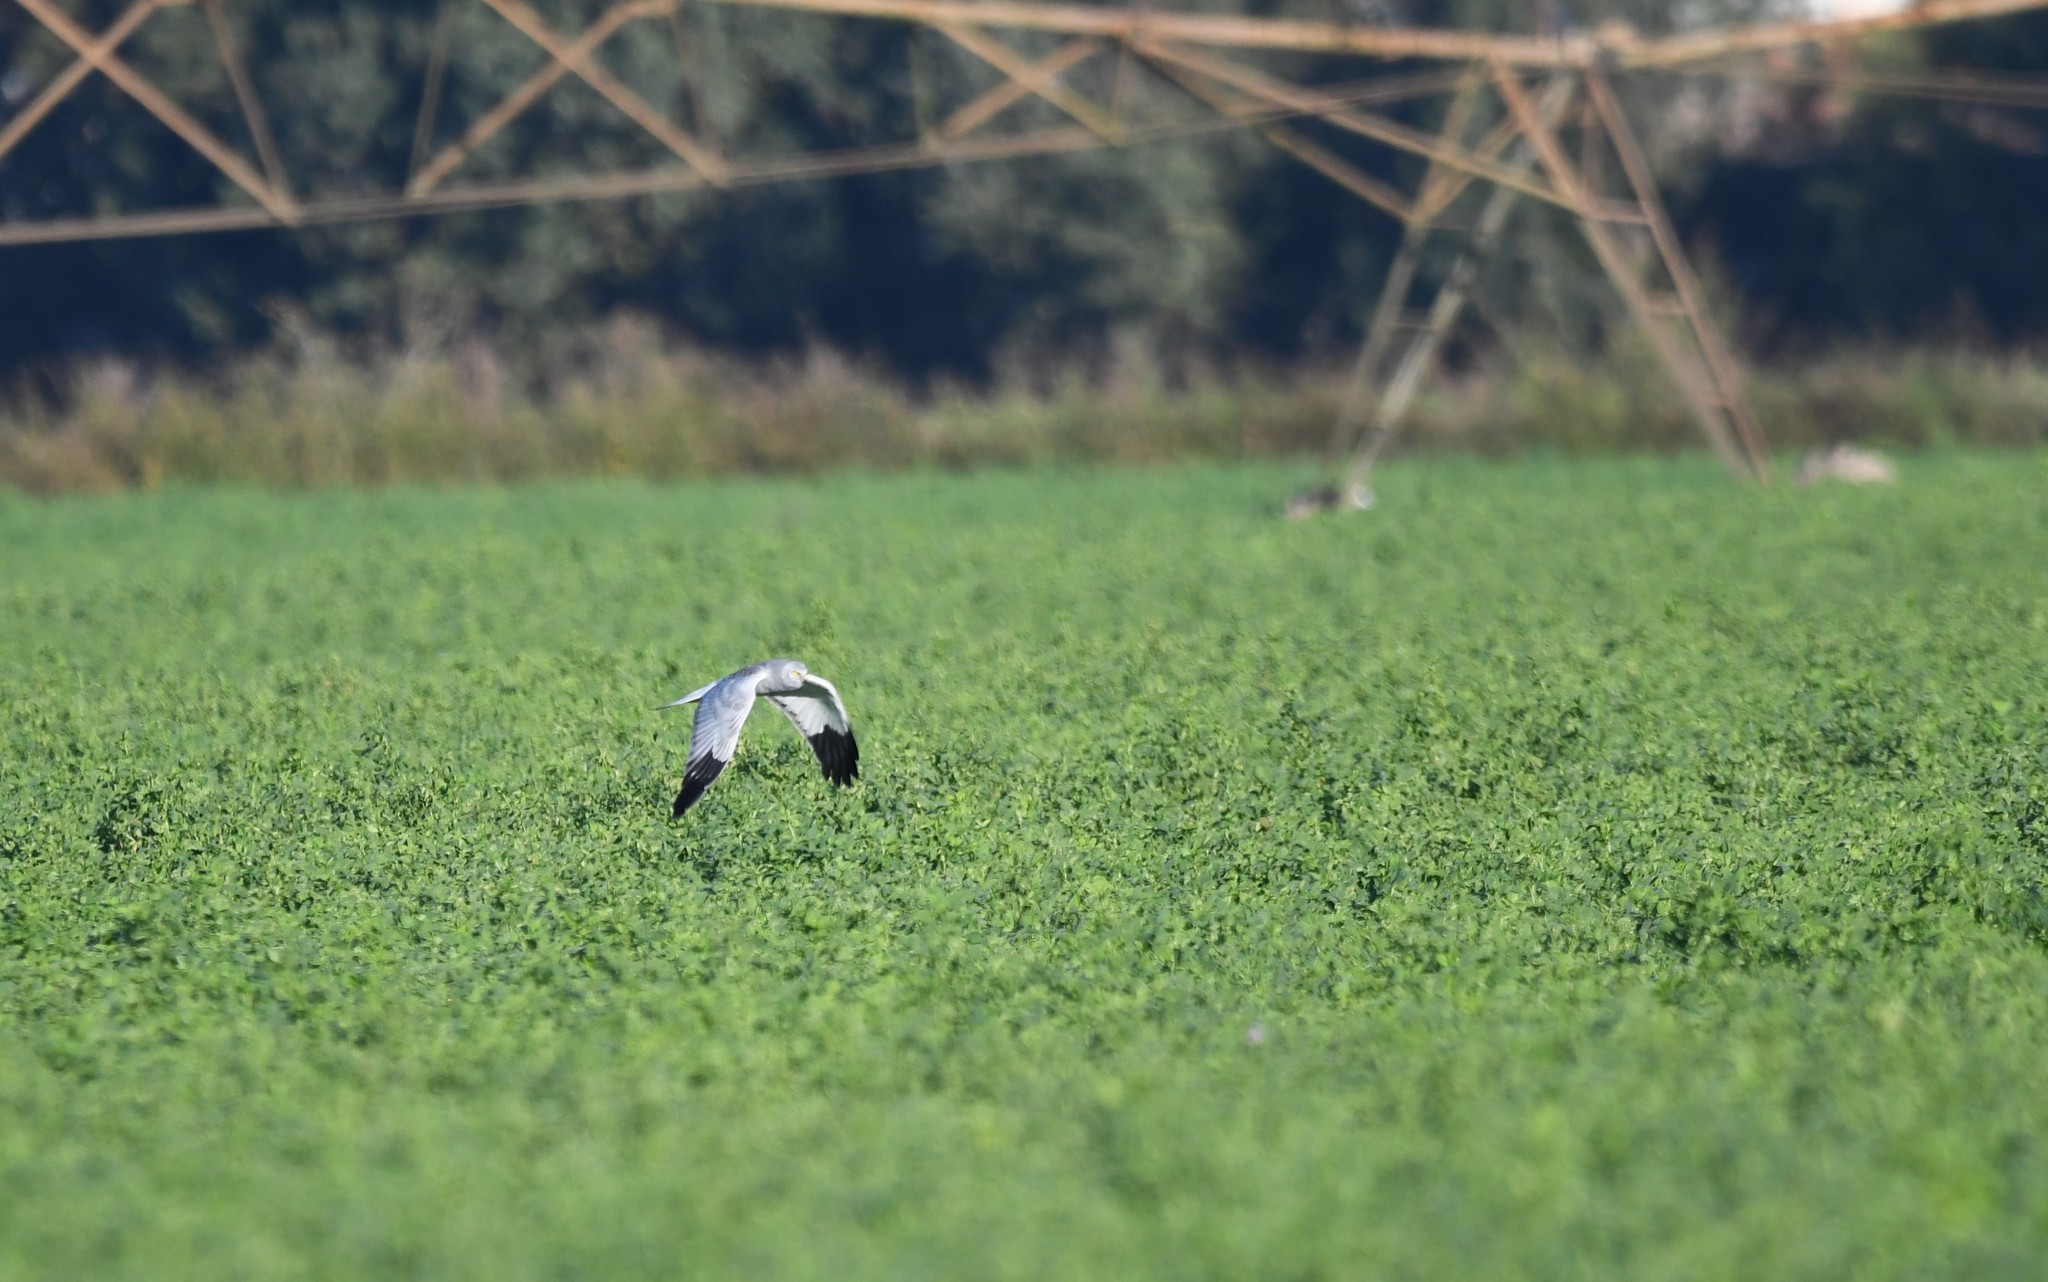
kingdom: Animalia
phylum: Chordata
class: Aves
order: Accipitriformes
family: Accipitridae
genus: Circus
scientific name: Circus cyaneus
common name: Hen harrier
